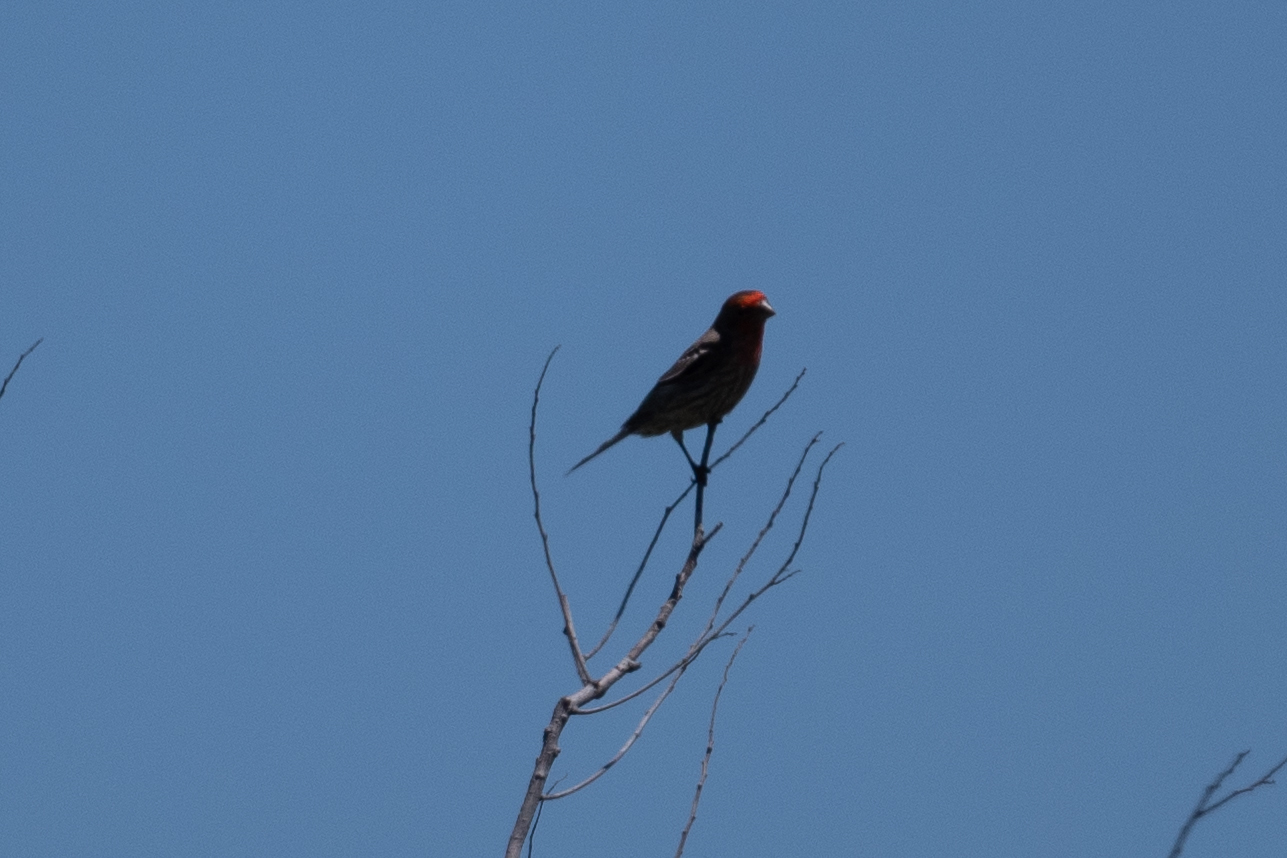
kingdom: Animalia
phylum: Chordata
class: Aves
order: Passeriformes
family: Fringillidae
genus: Haemorhous
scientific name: Haemorhous mexicanus
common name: House finch
